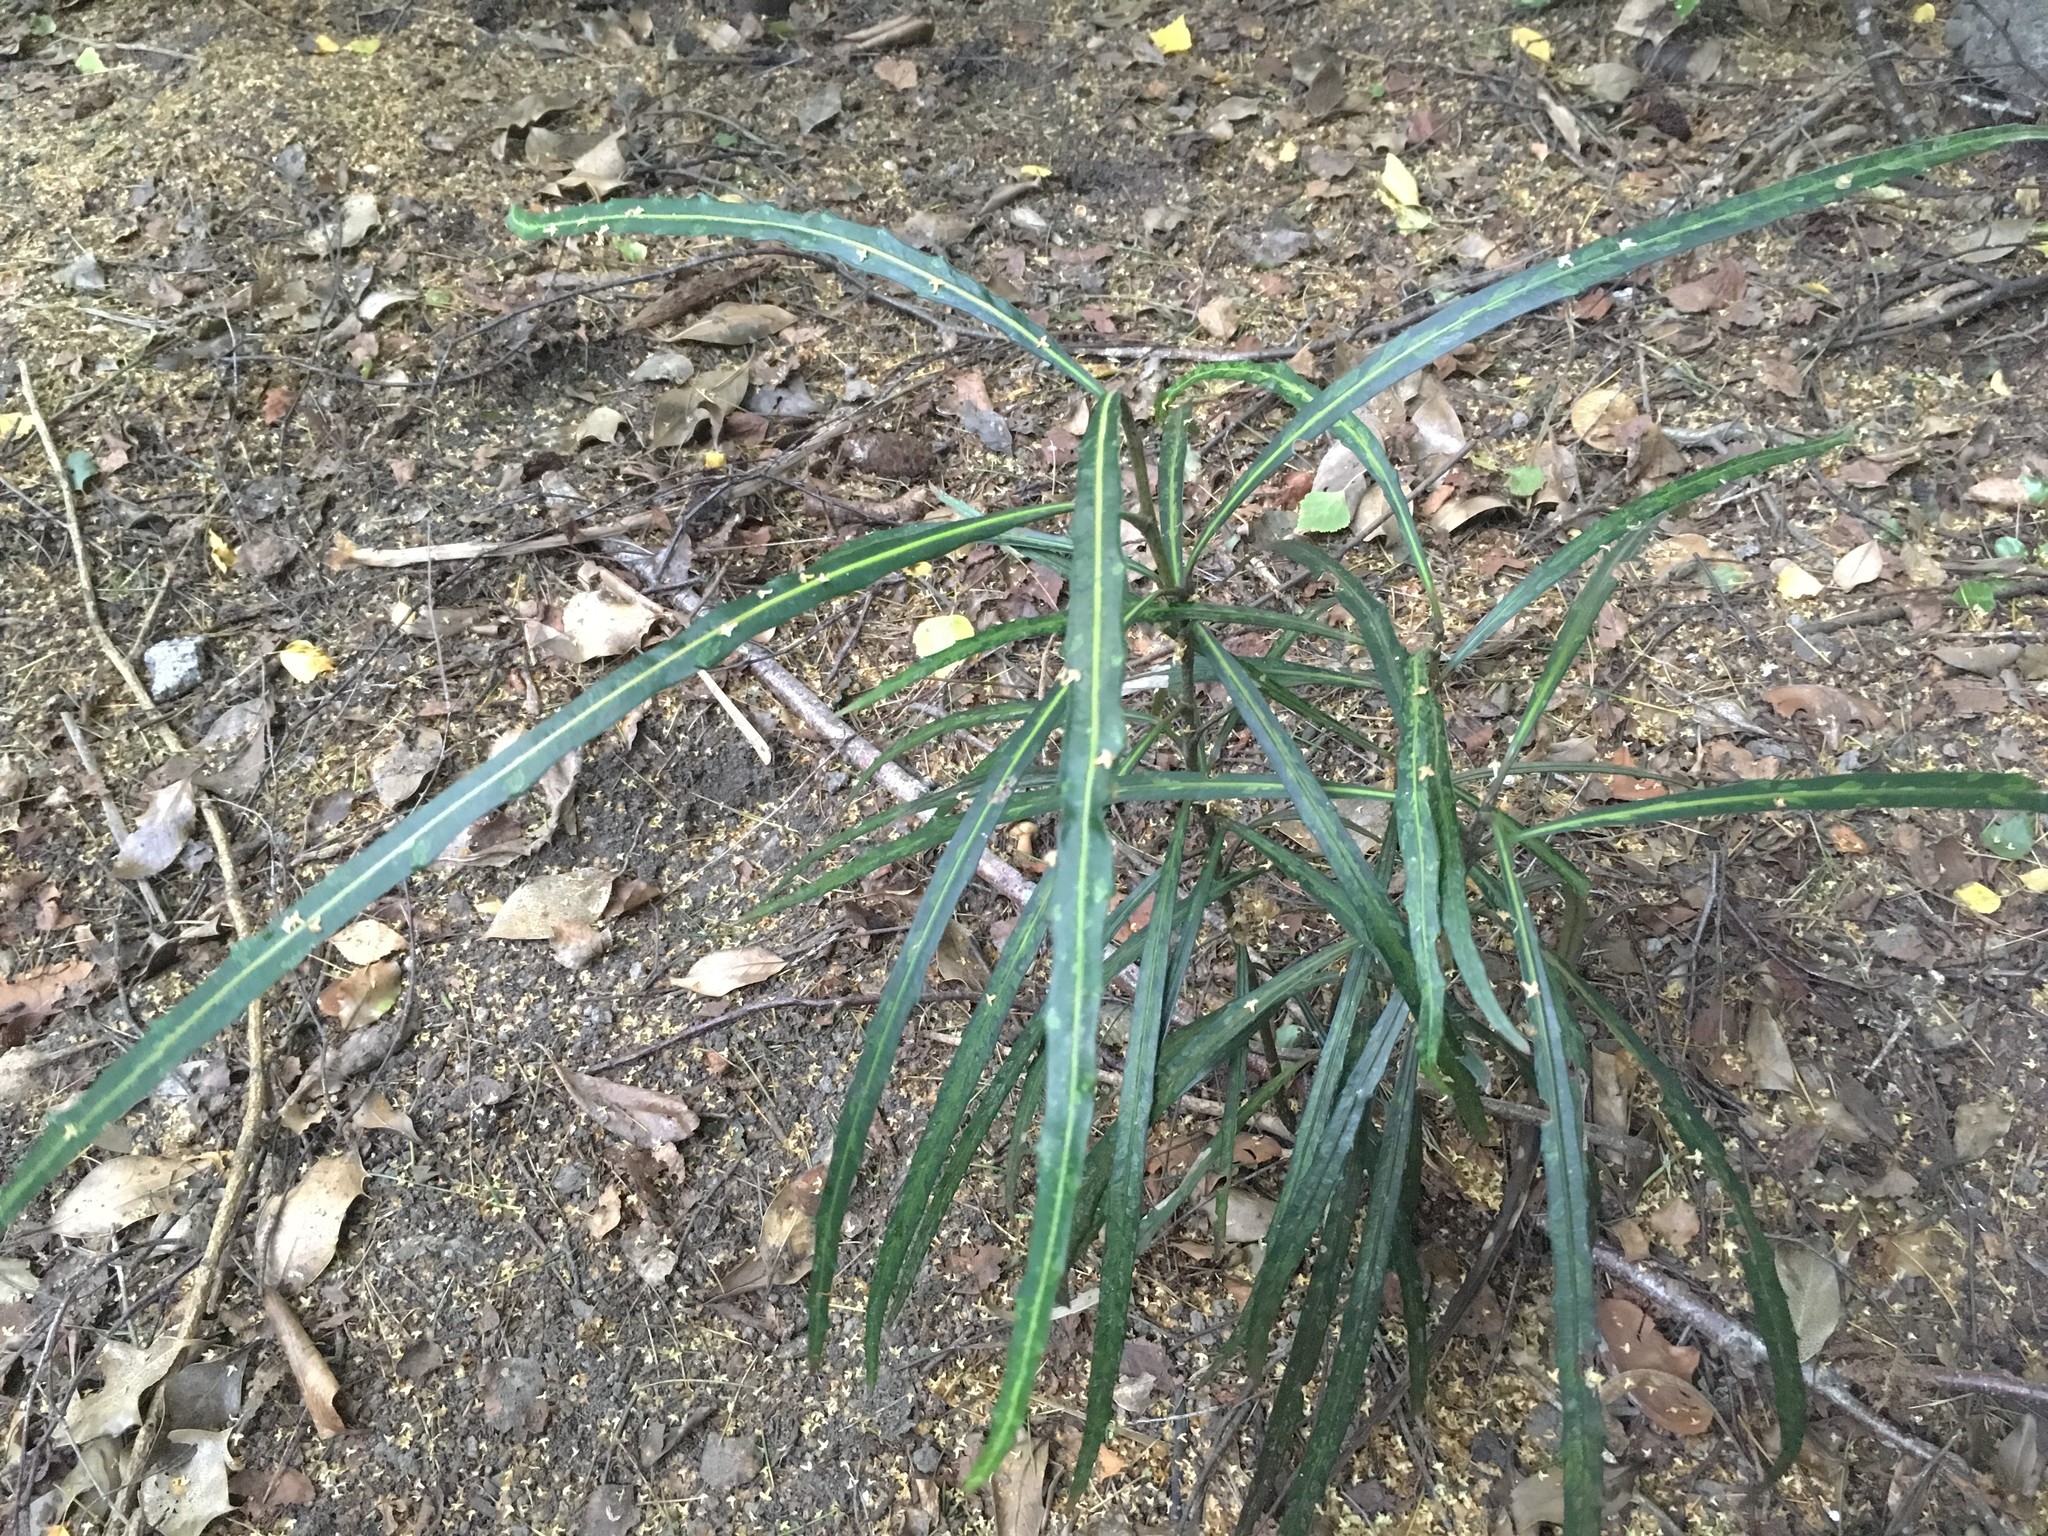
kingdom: Plantae
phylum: Tracheophyta
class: Magnoliopsida
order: Apiales
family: Araliaceae
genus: Pseudopanax
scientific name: Pseudopanax
